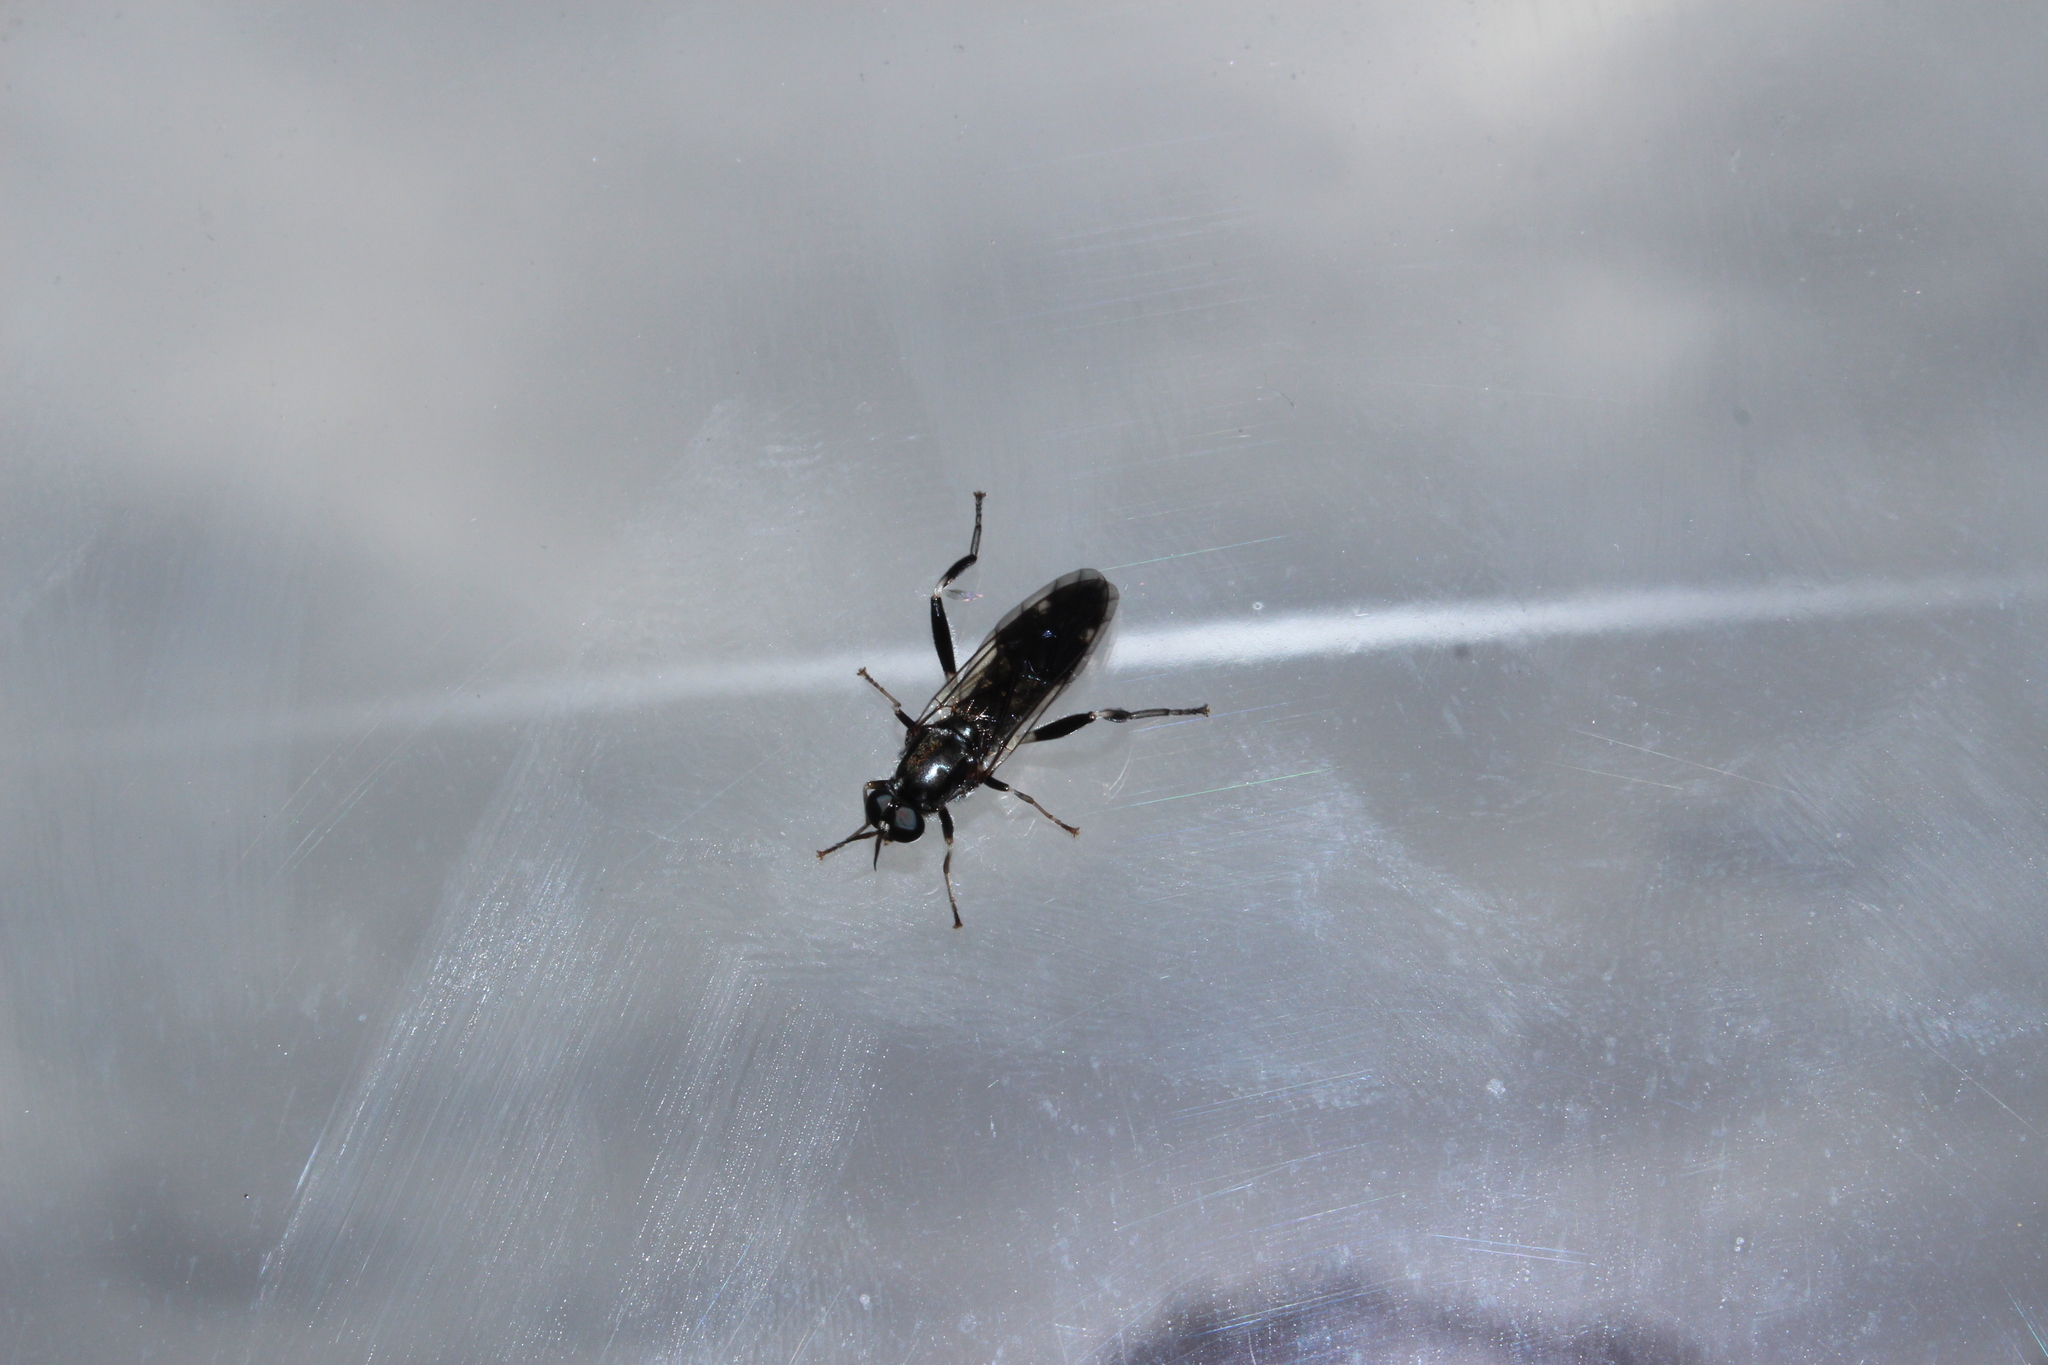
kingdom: Animalia
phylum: Arthropoda
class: Insecta
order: Diptera
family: Stratiomyidae
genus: Exaireta
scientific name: Exaireta spinigera
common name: Blue soldier fly
